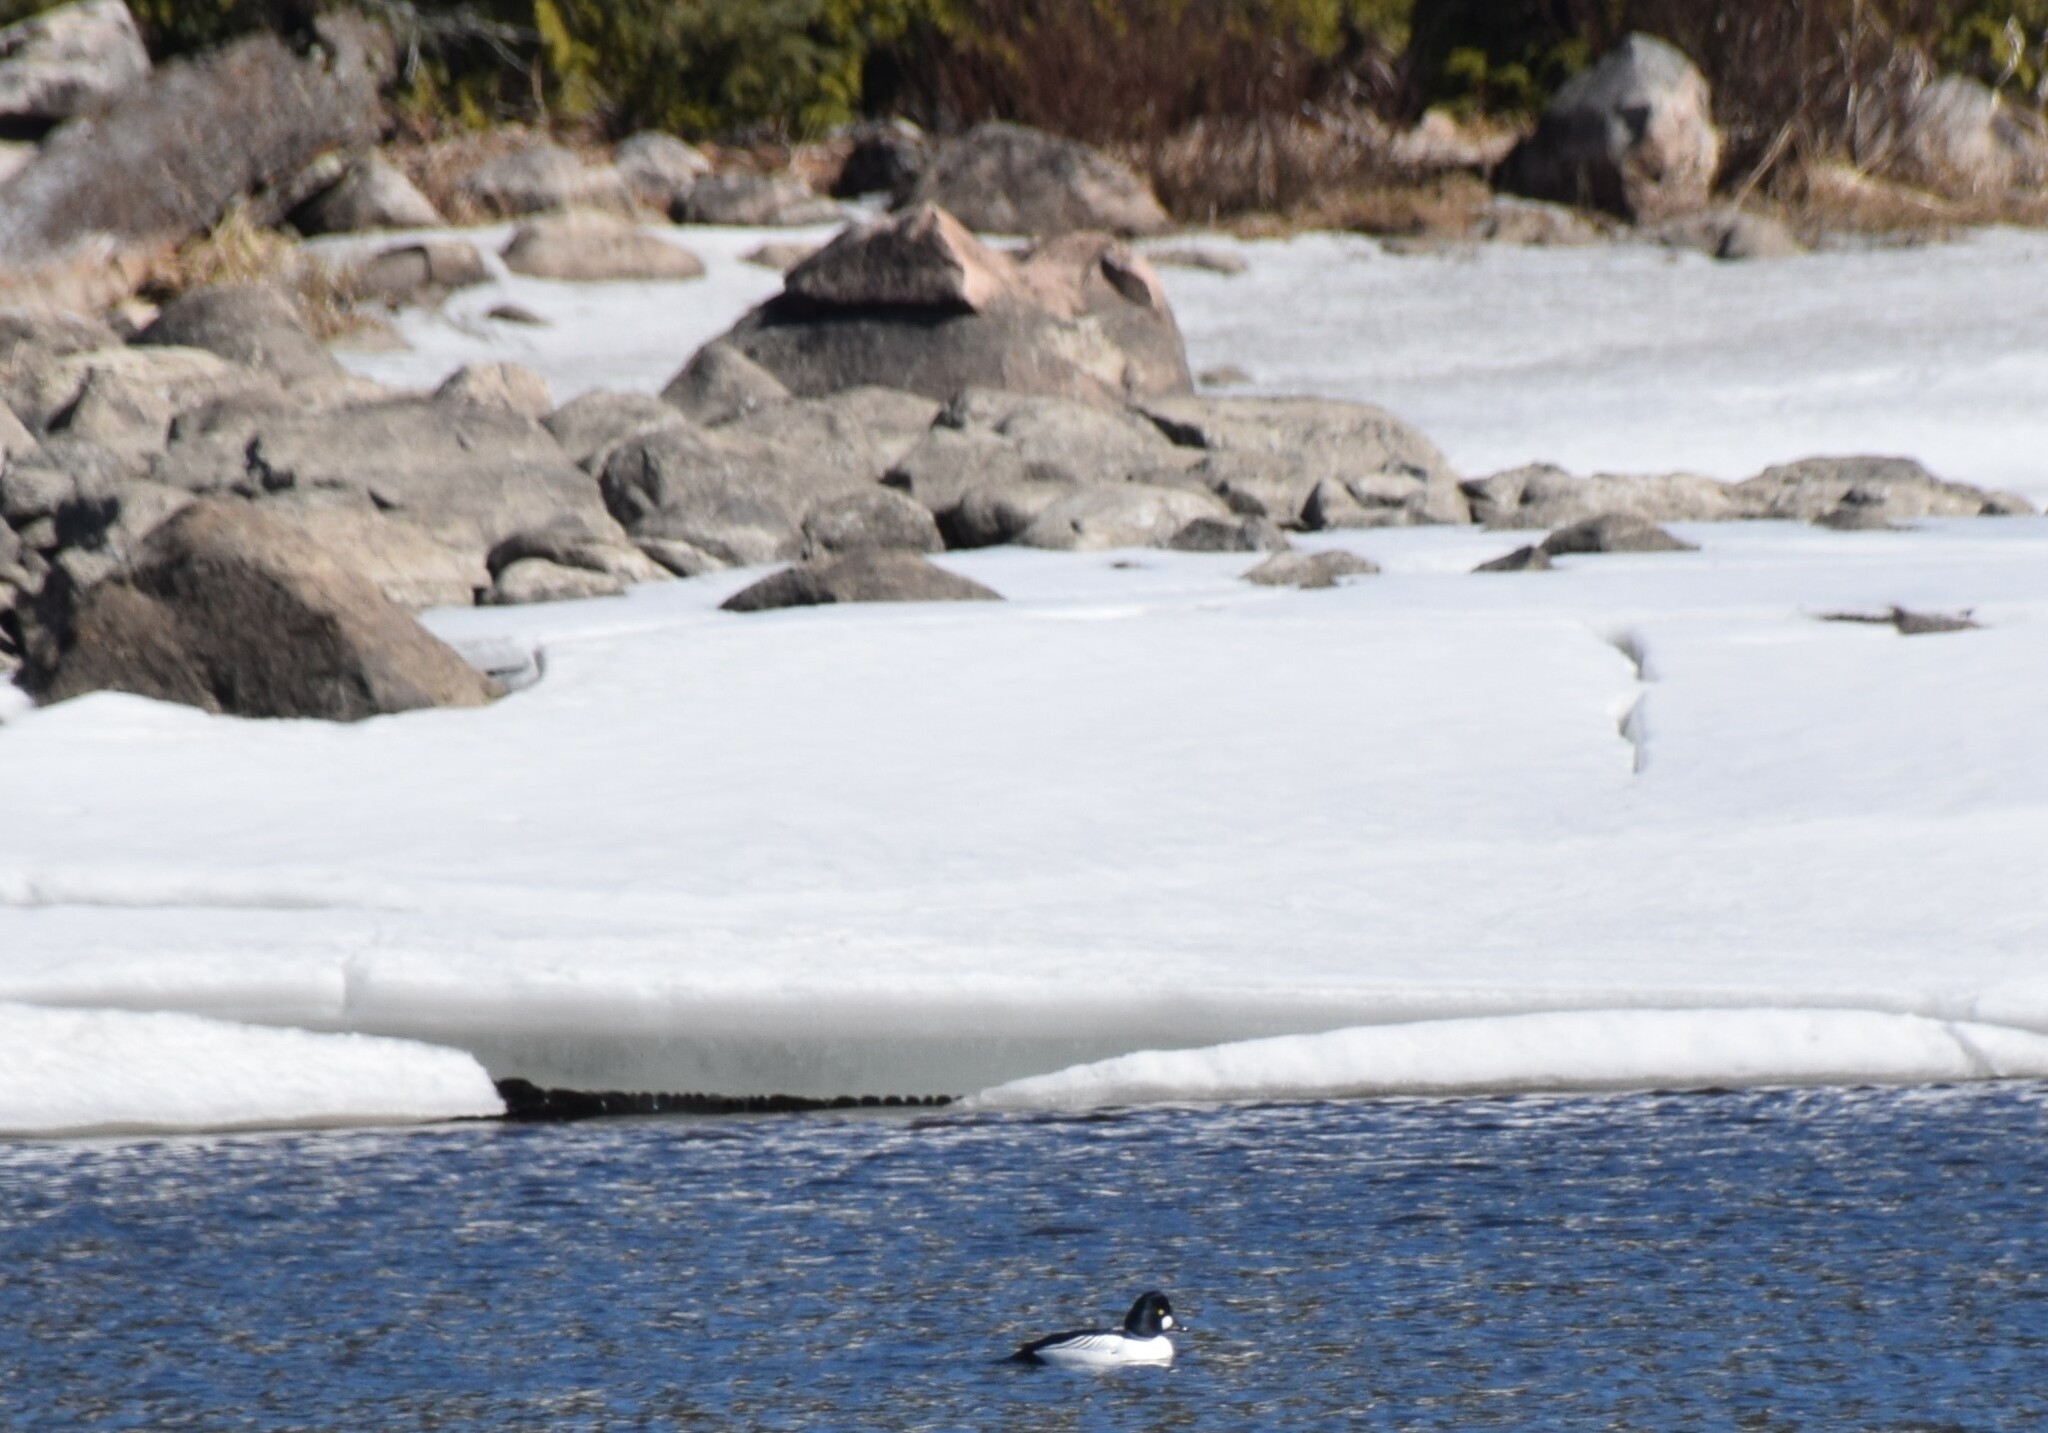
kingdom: Animalia
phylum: Chordata
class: Aves
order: Anseriformes
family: Anatidae
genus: Bucephala
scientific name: Bucephala clangula
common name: Common goldeneye
